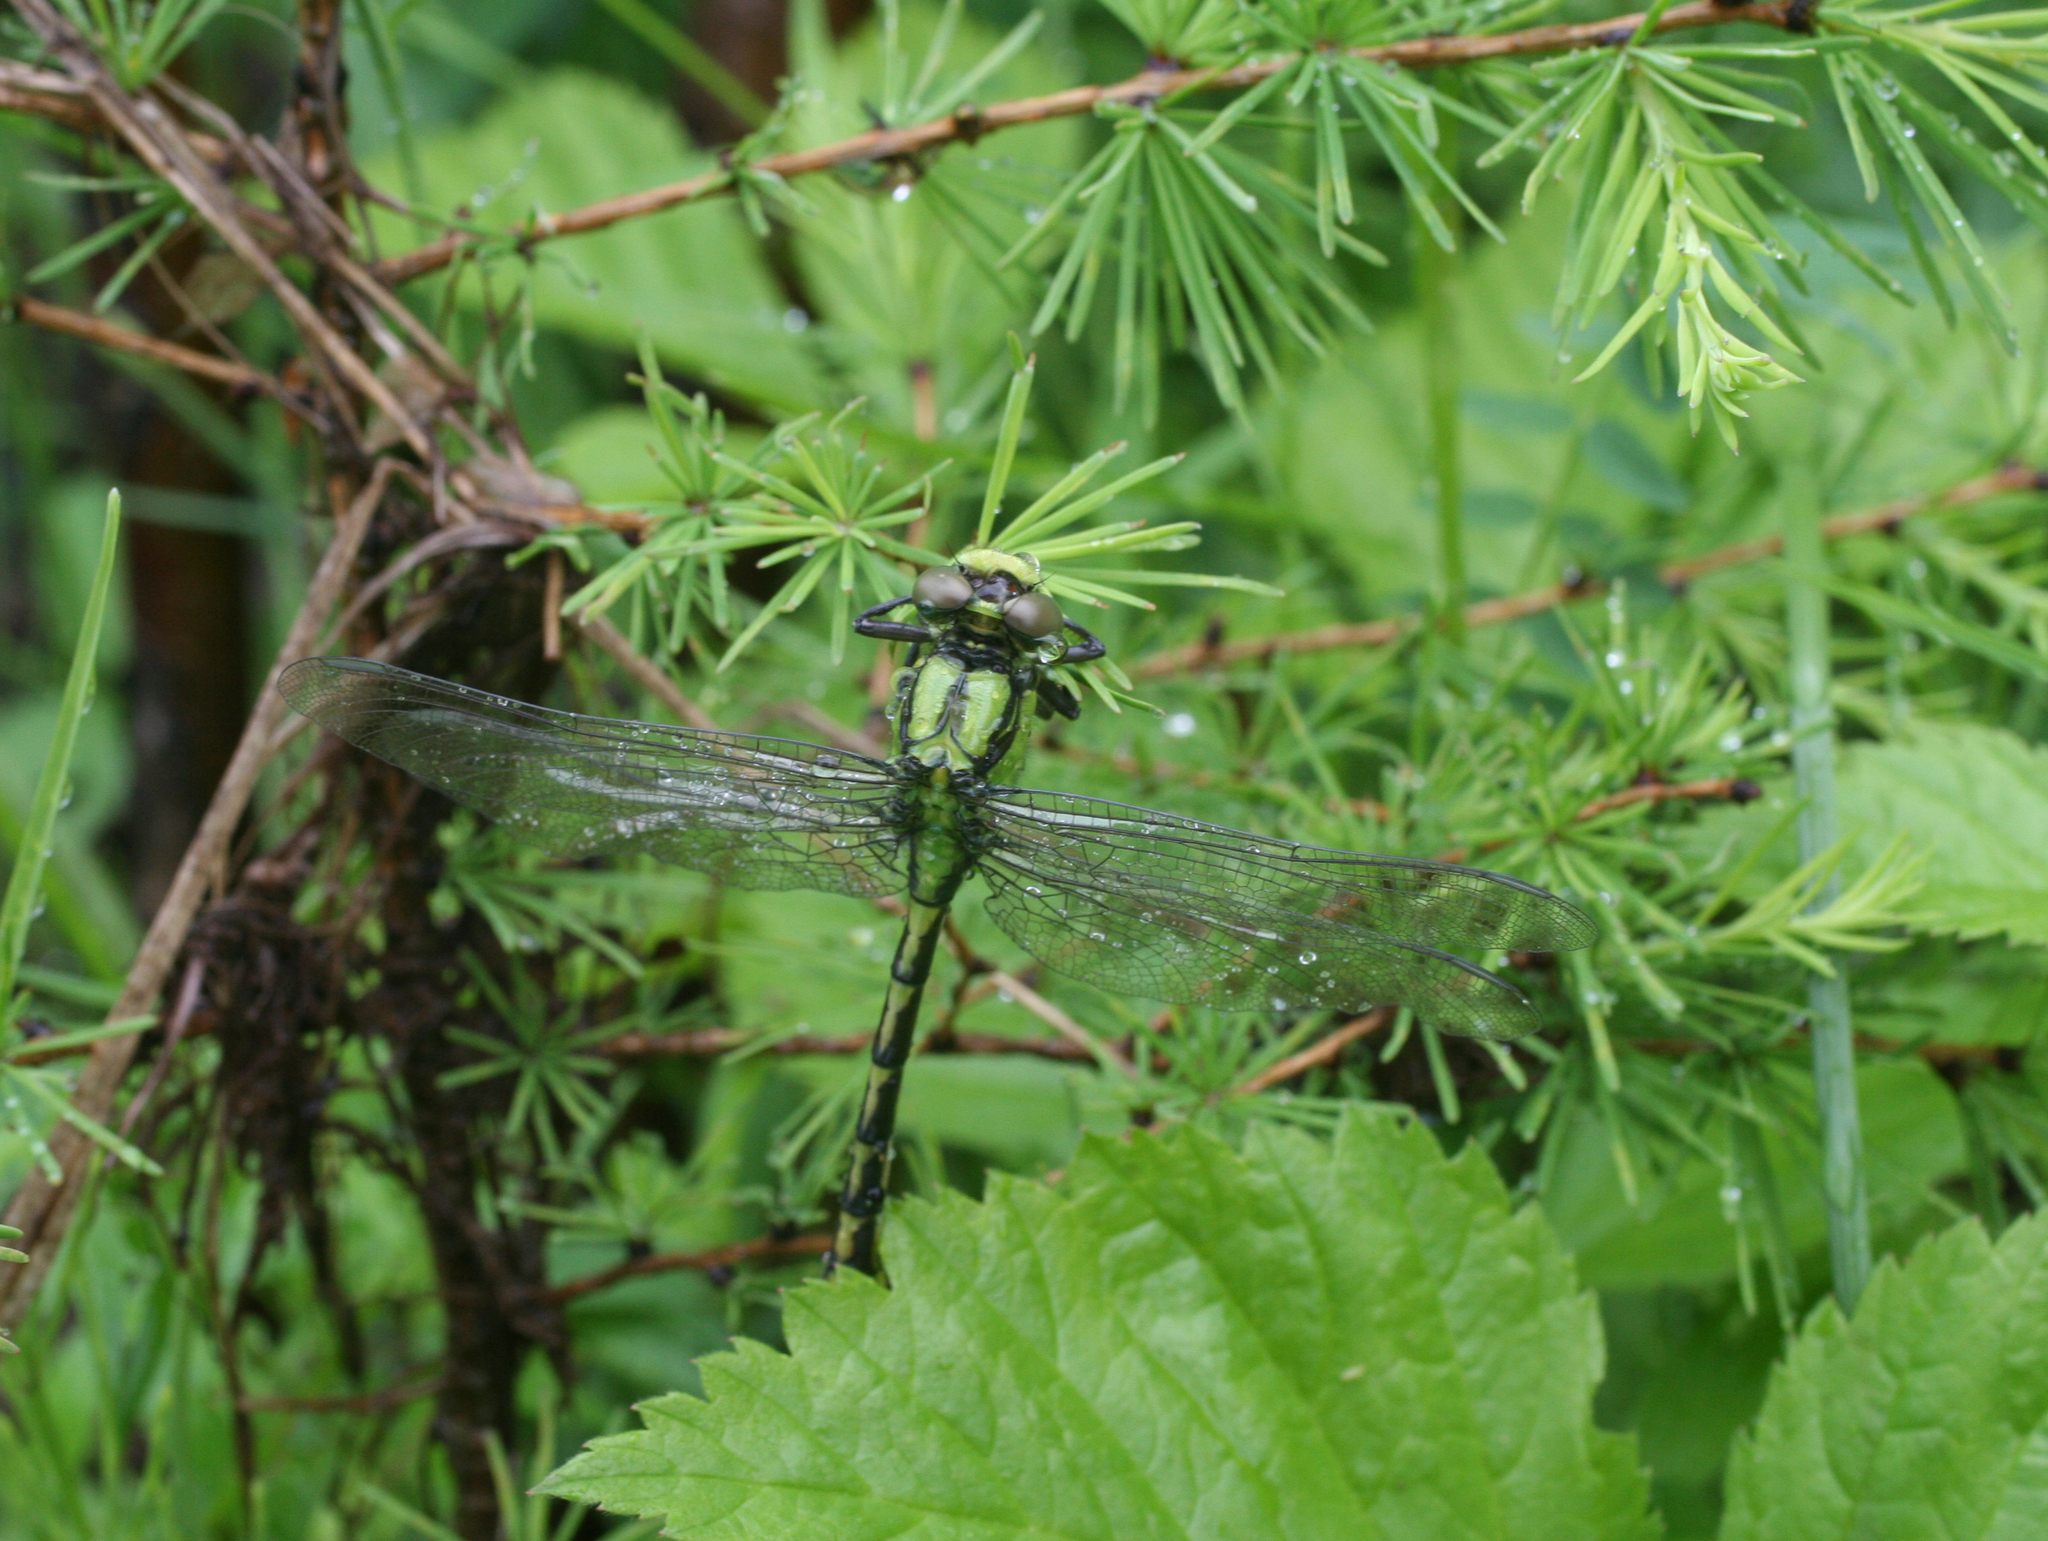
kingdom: Animalia
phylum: Arthropoda
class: Insecta
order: Odonata
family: Gomphidae
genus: Ophiogomphus
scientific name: Ophiogomphus obscurus
